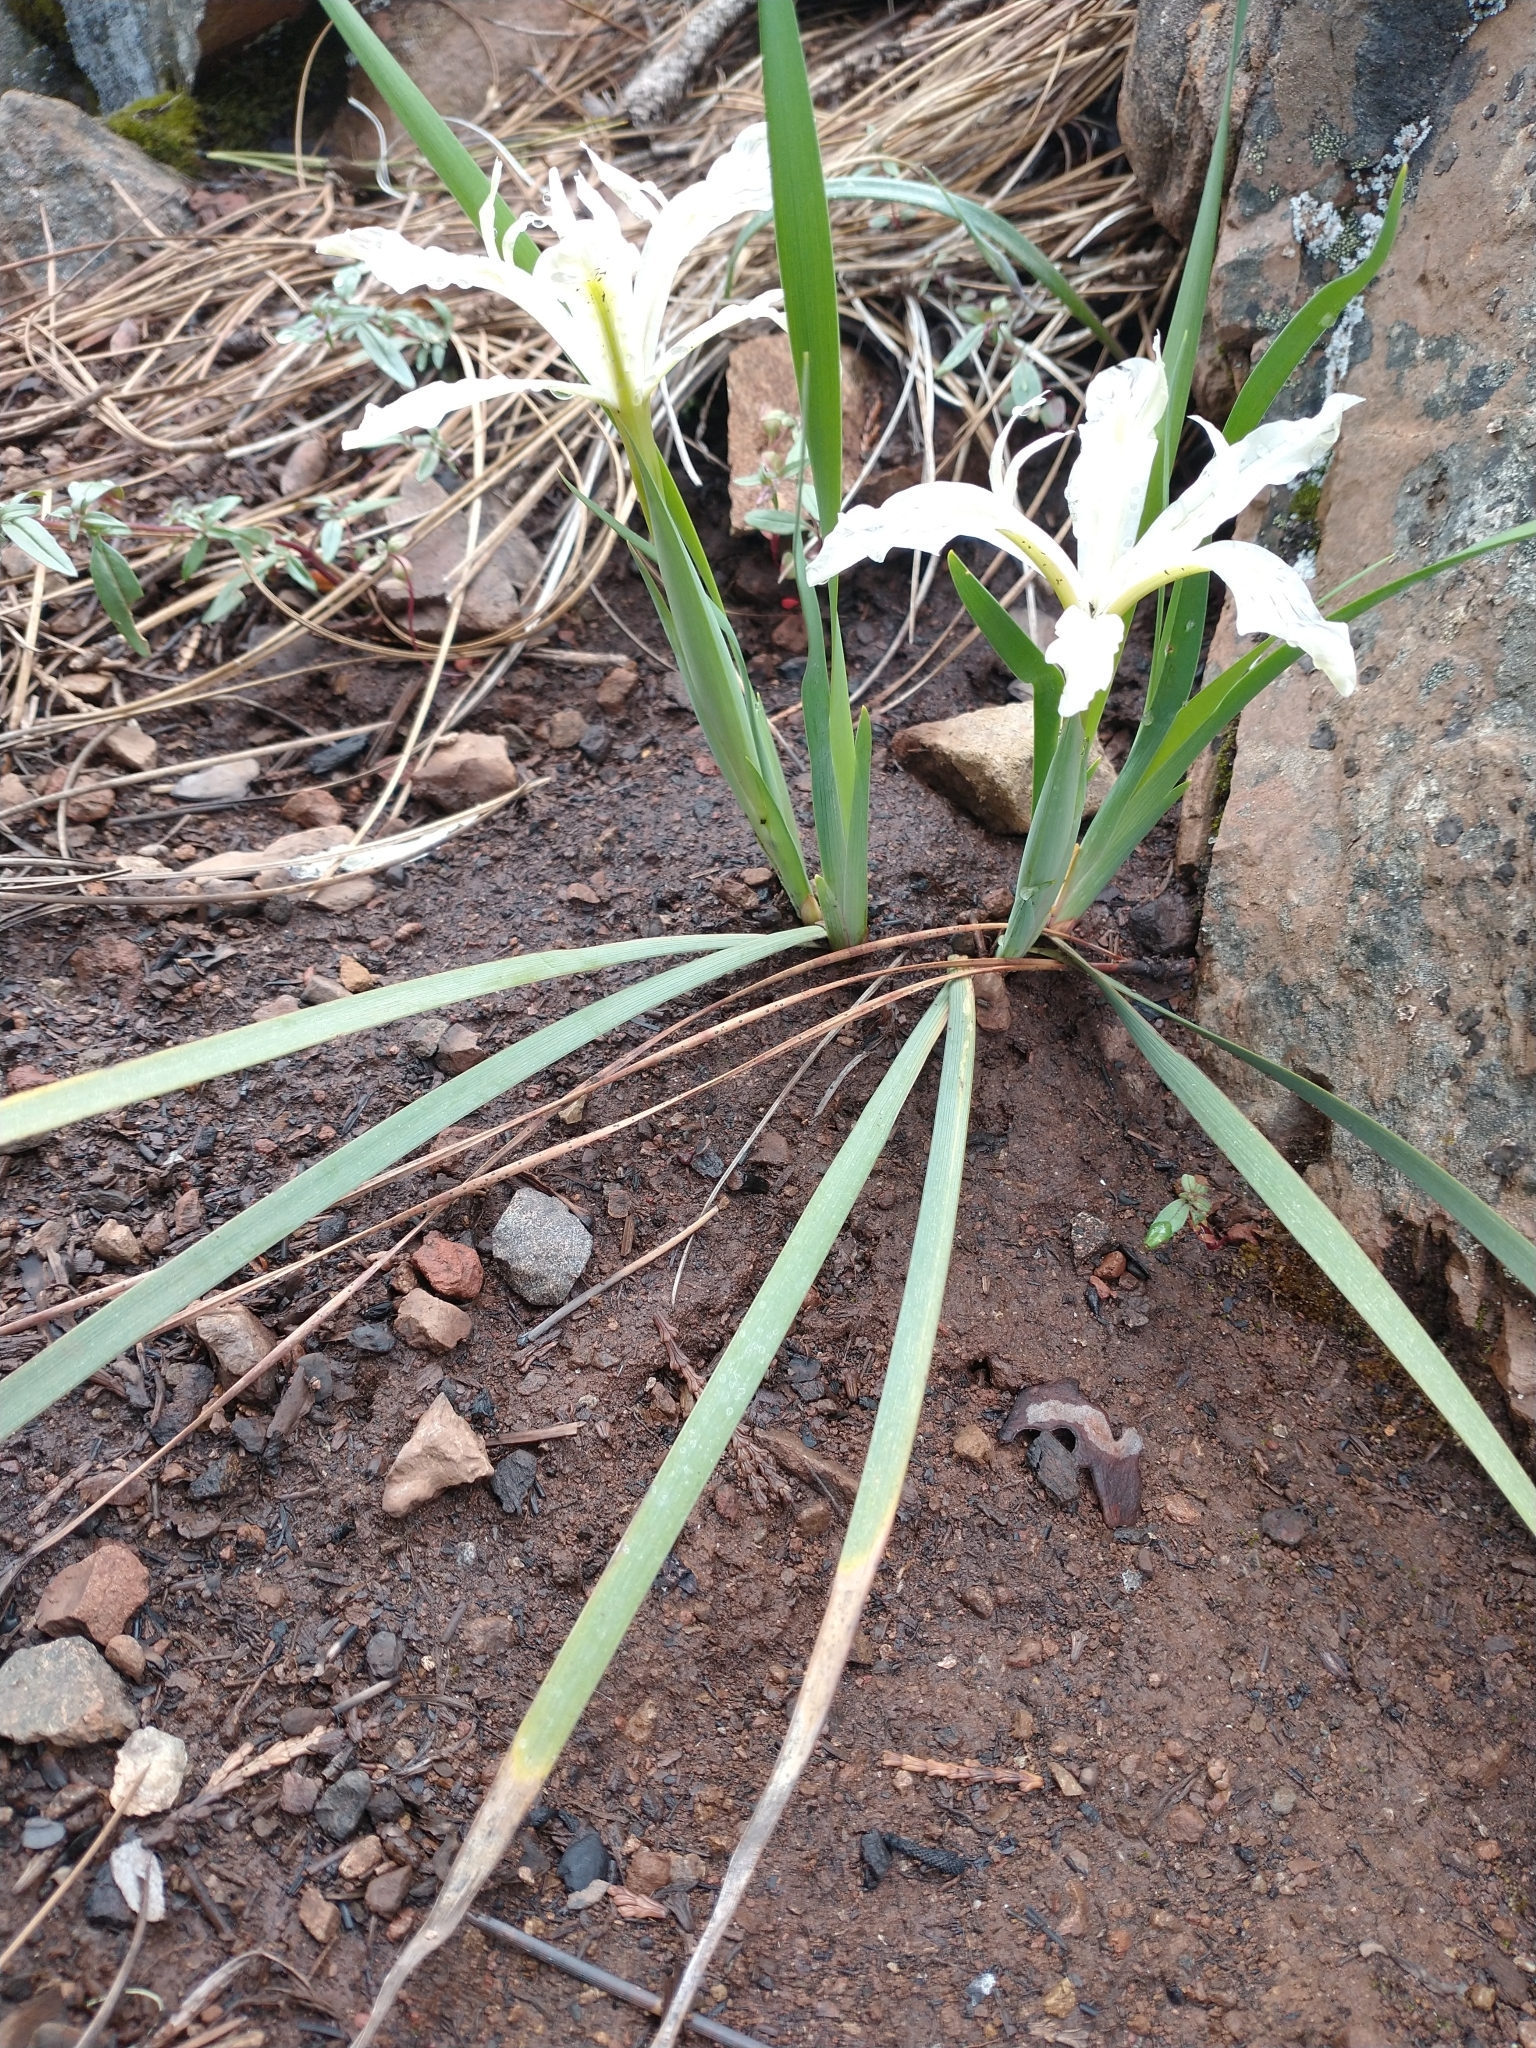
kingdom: Plantae
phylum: Tracheophyta
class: Liliopsida
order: Asparagales
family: Iridaceae
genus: Iris
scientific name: Iris tenuissima
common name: Long-tube iris
